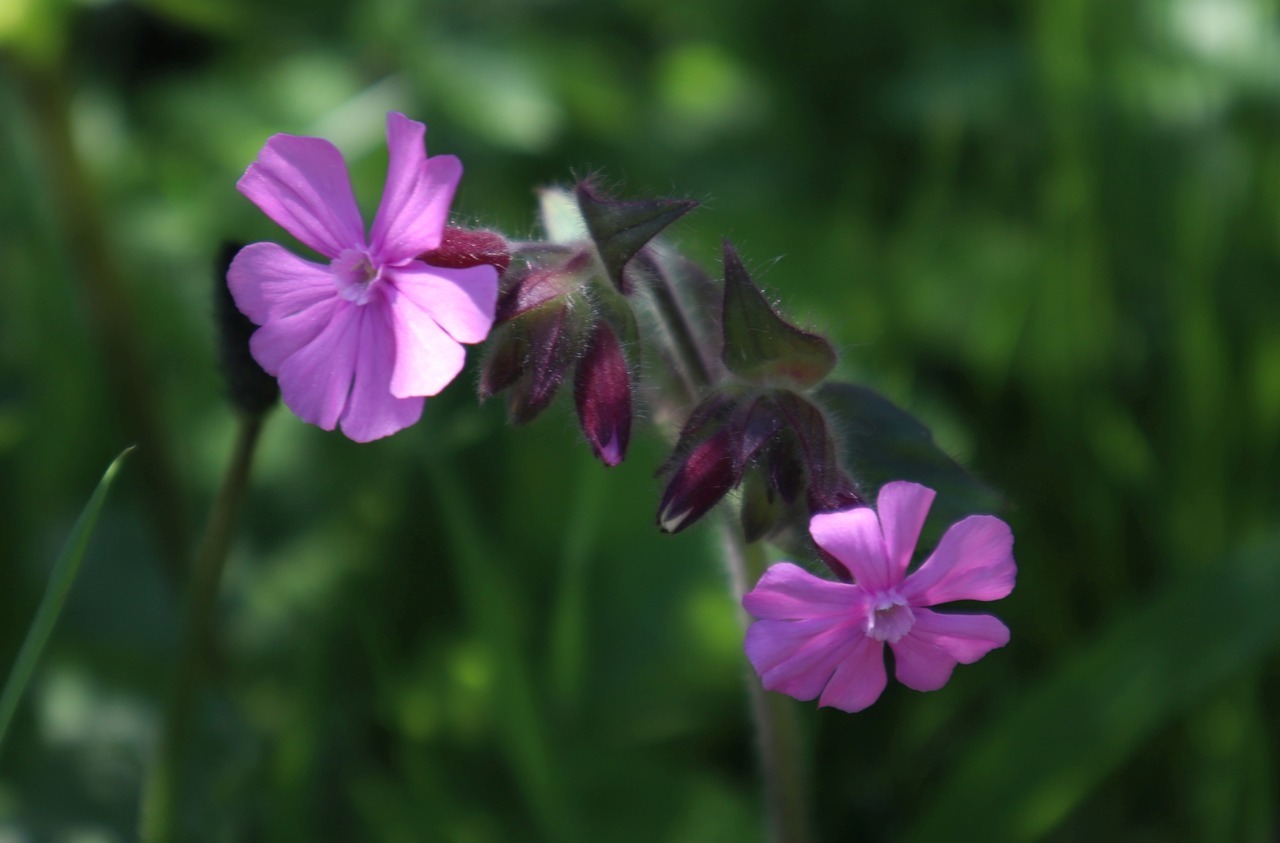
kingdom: Plantae
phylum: Tracheophyta
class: Magnoliopsida
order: Caryophyllales
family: Caryophyllaceae
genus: Silene
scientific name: Silene dioica
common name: Red campion
